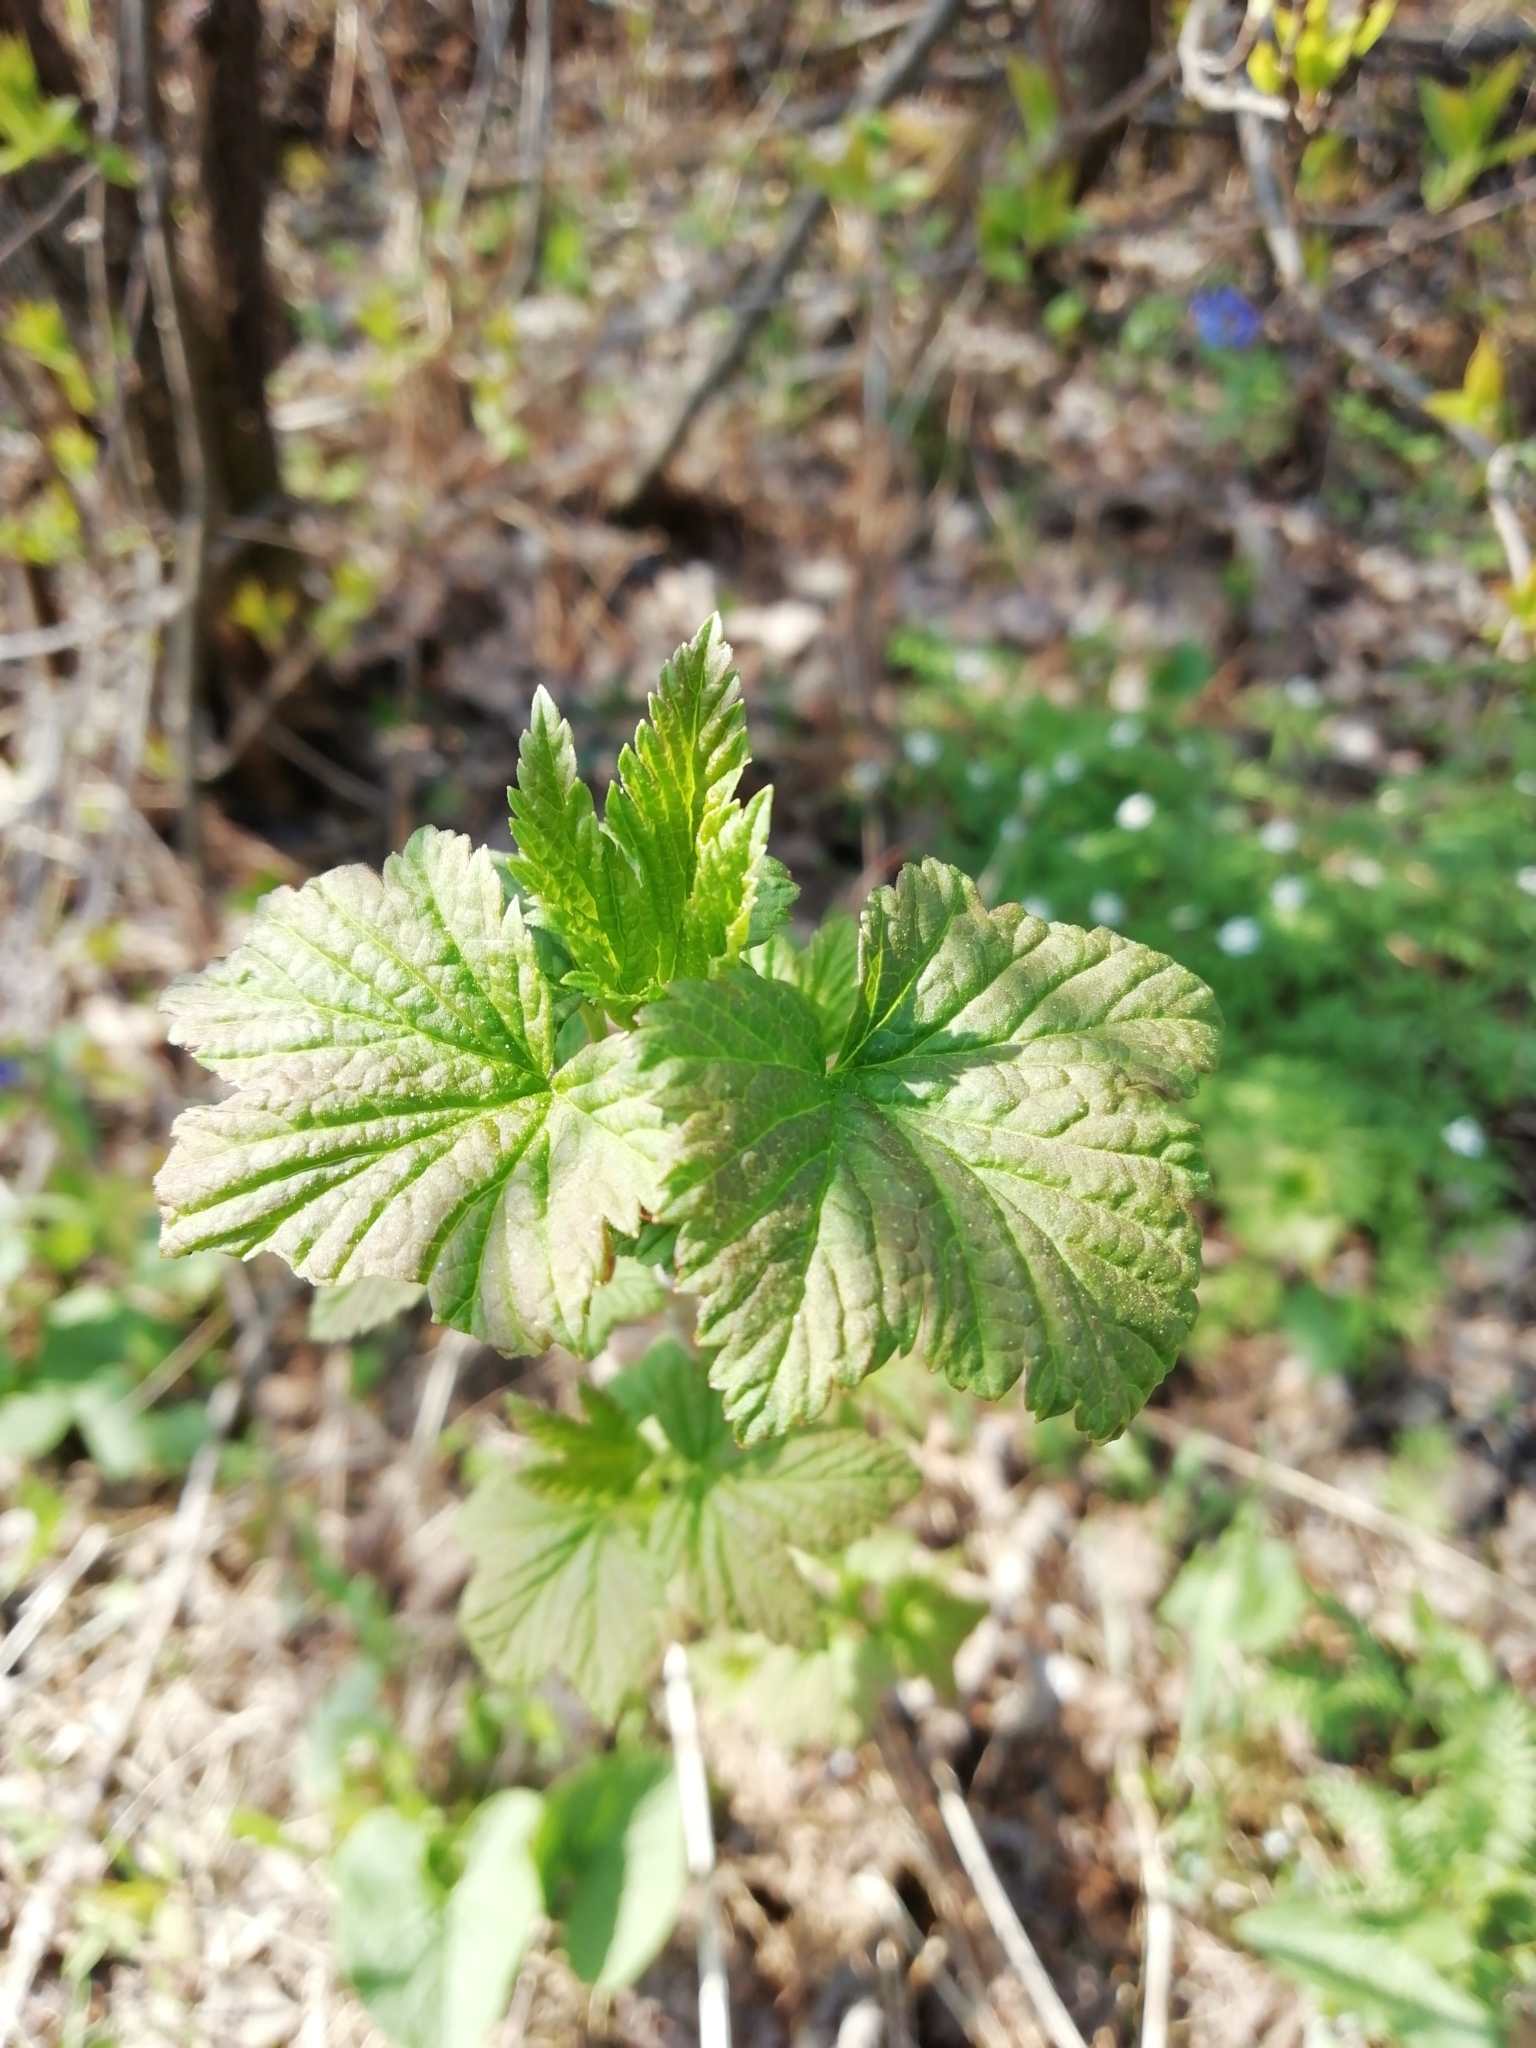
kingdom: Plantae
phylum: Tracheophyta
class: Magnoliopsida
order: Saxifragales
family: Grossulariaceae
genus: Ribes
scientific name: Ribes nigrum
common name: Black currant
